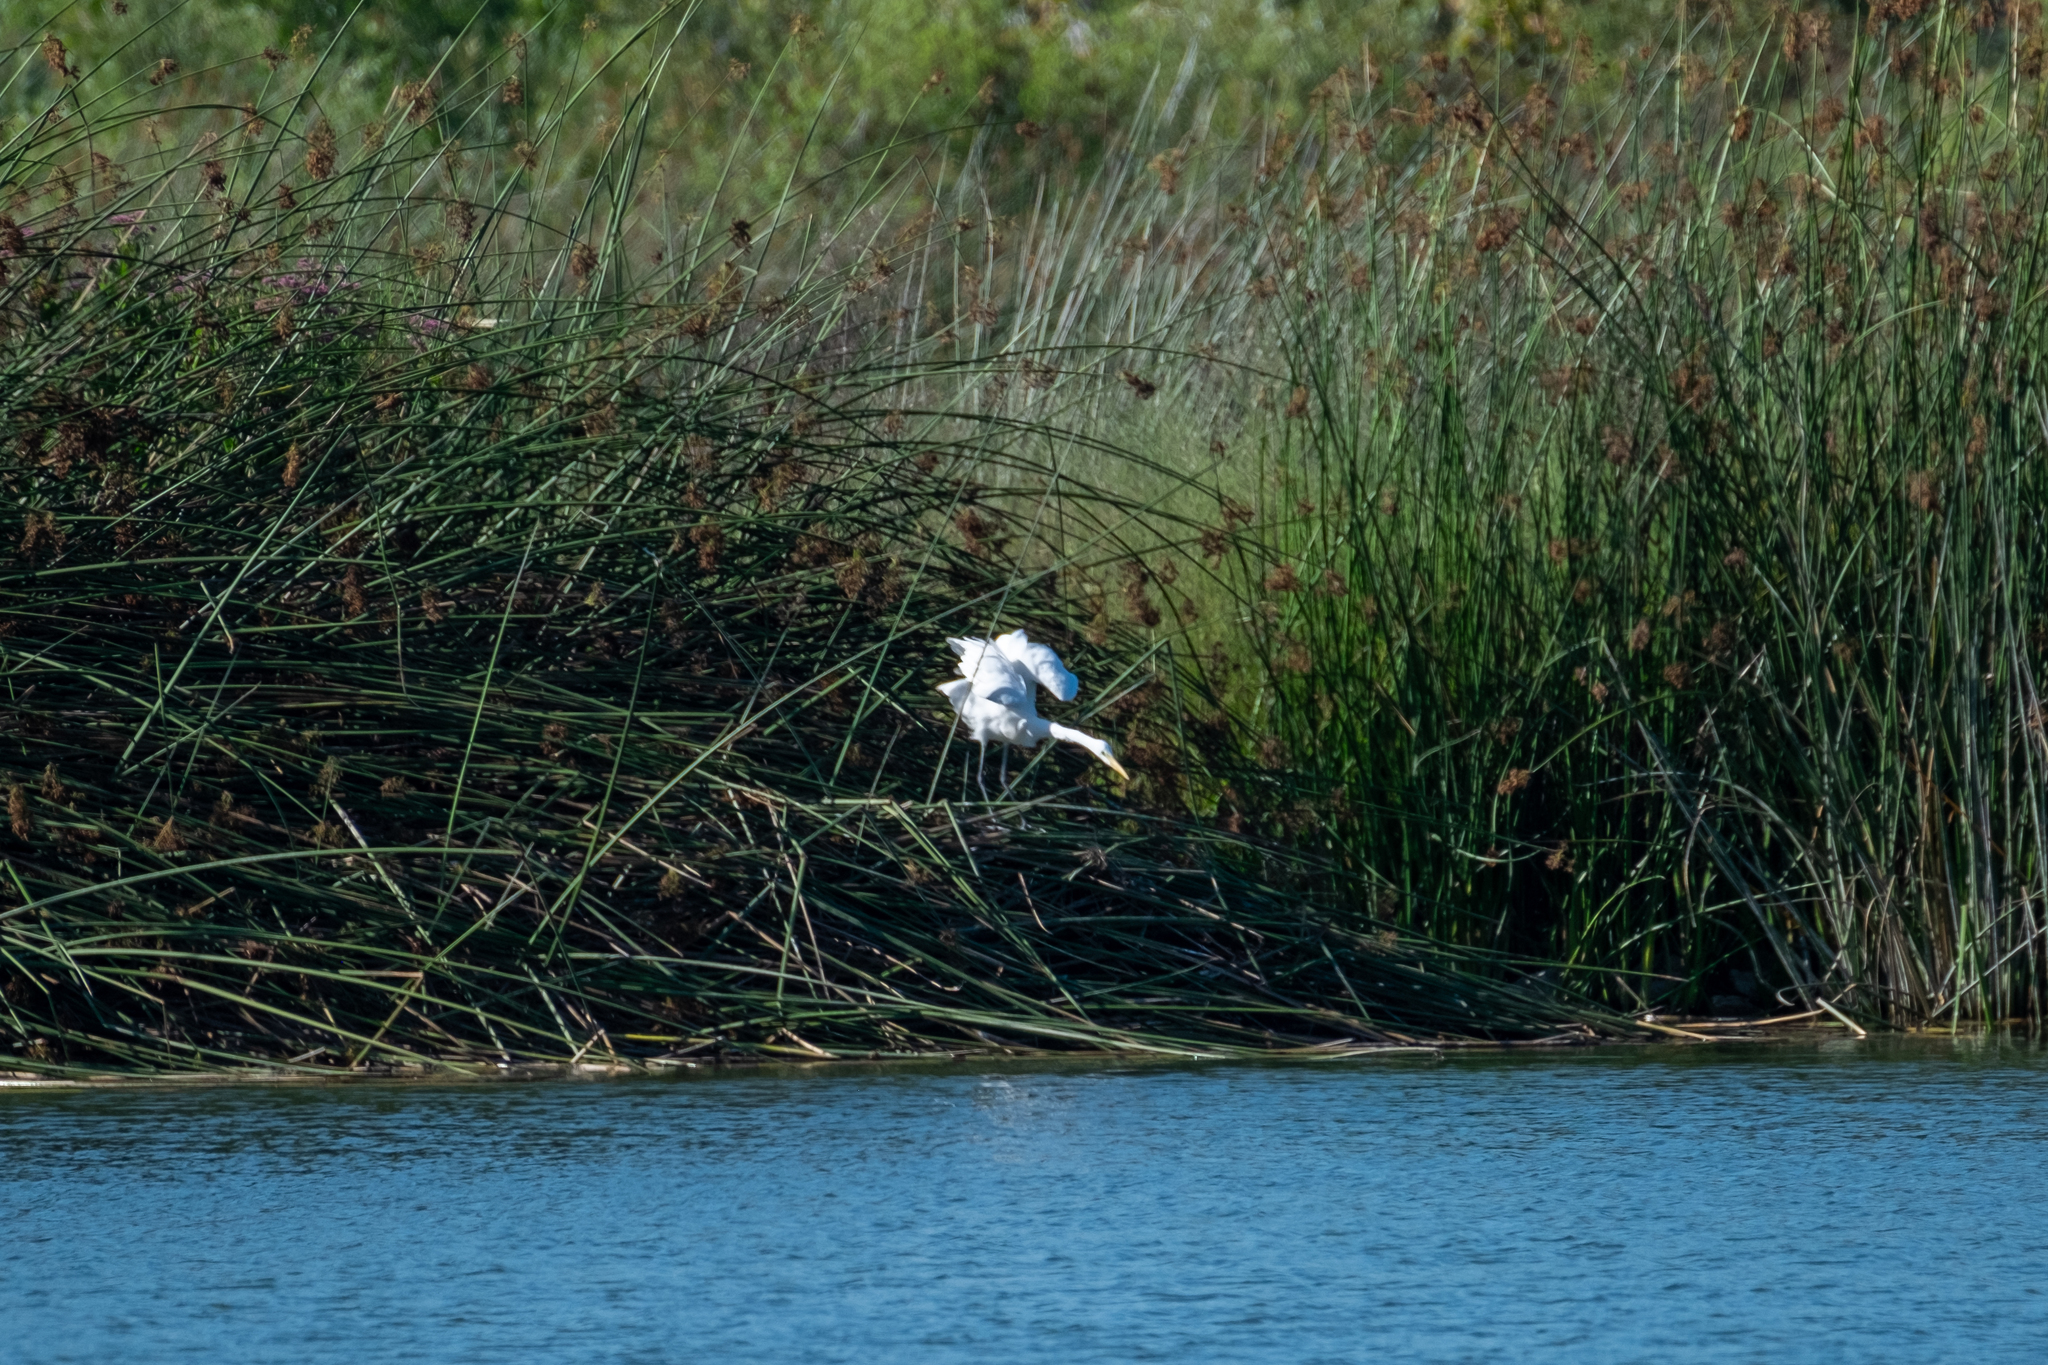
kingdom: Animalia
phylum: Chordata
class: Aves
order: Pelecaniformes
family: Ardeidae
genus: Ardea
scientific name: Ardea alba
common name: Great egret
